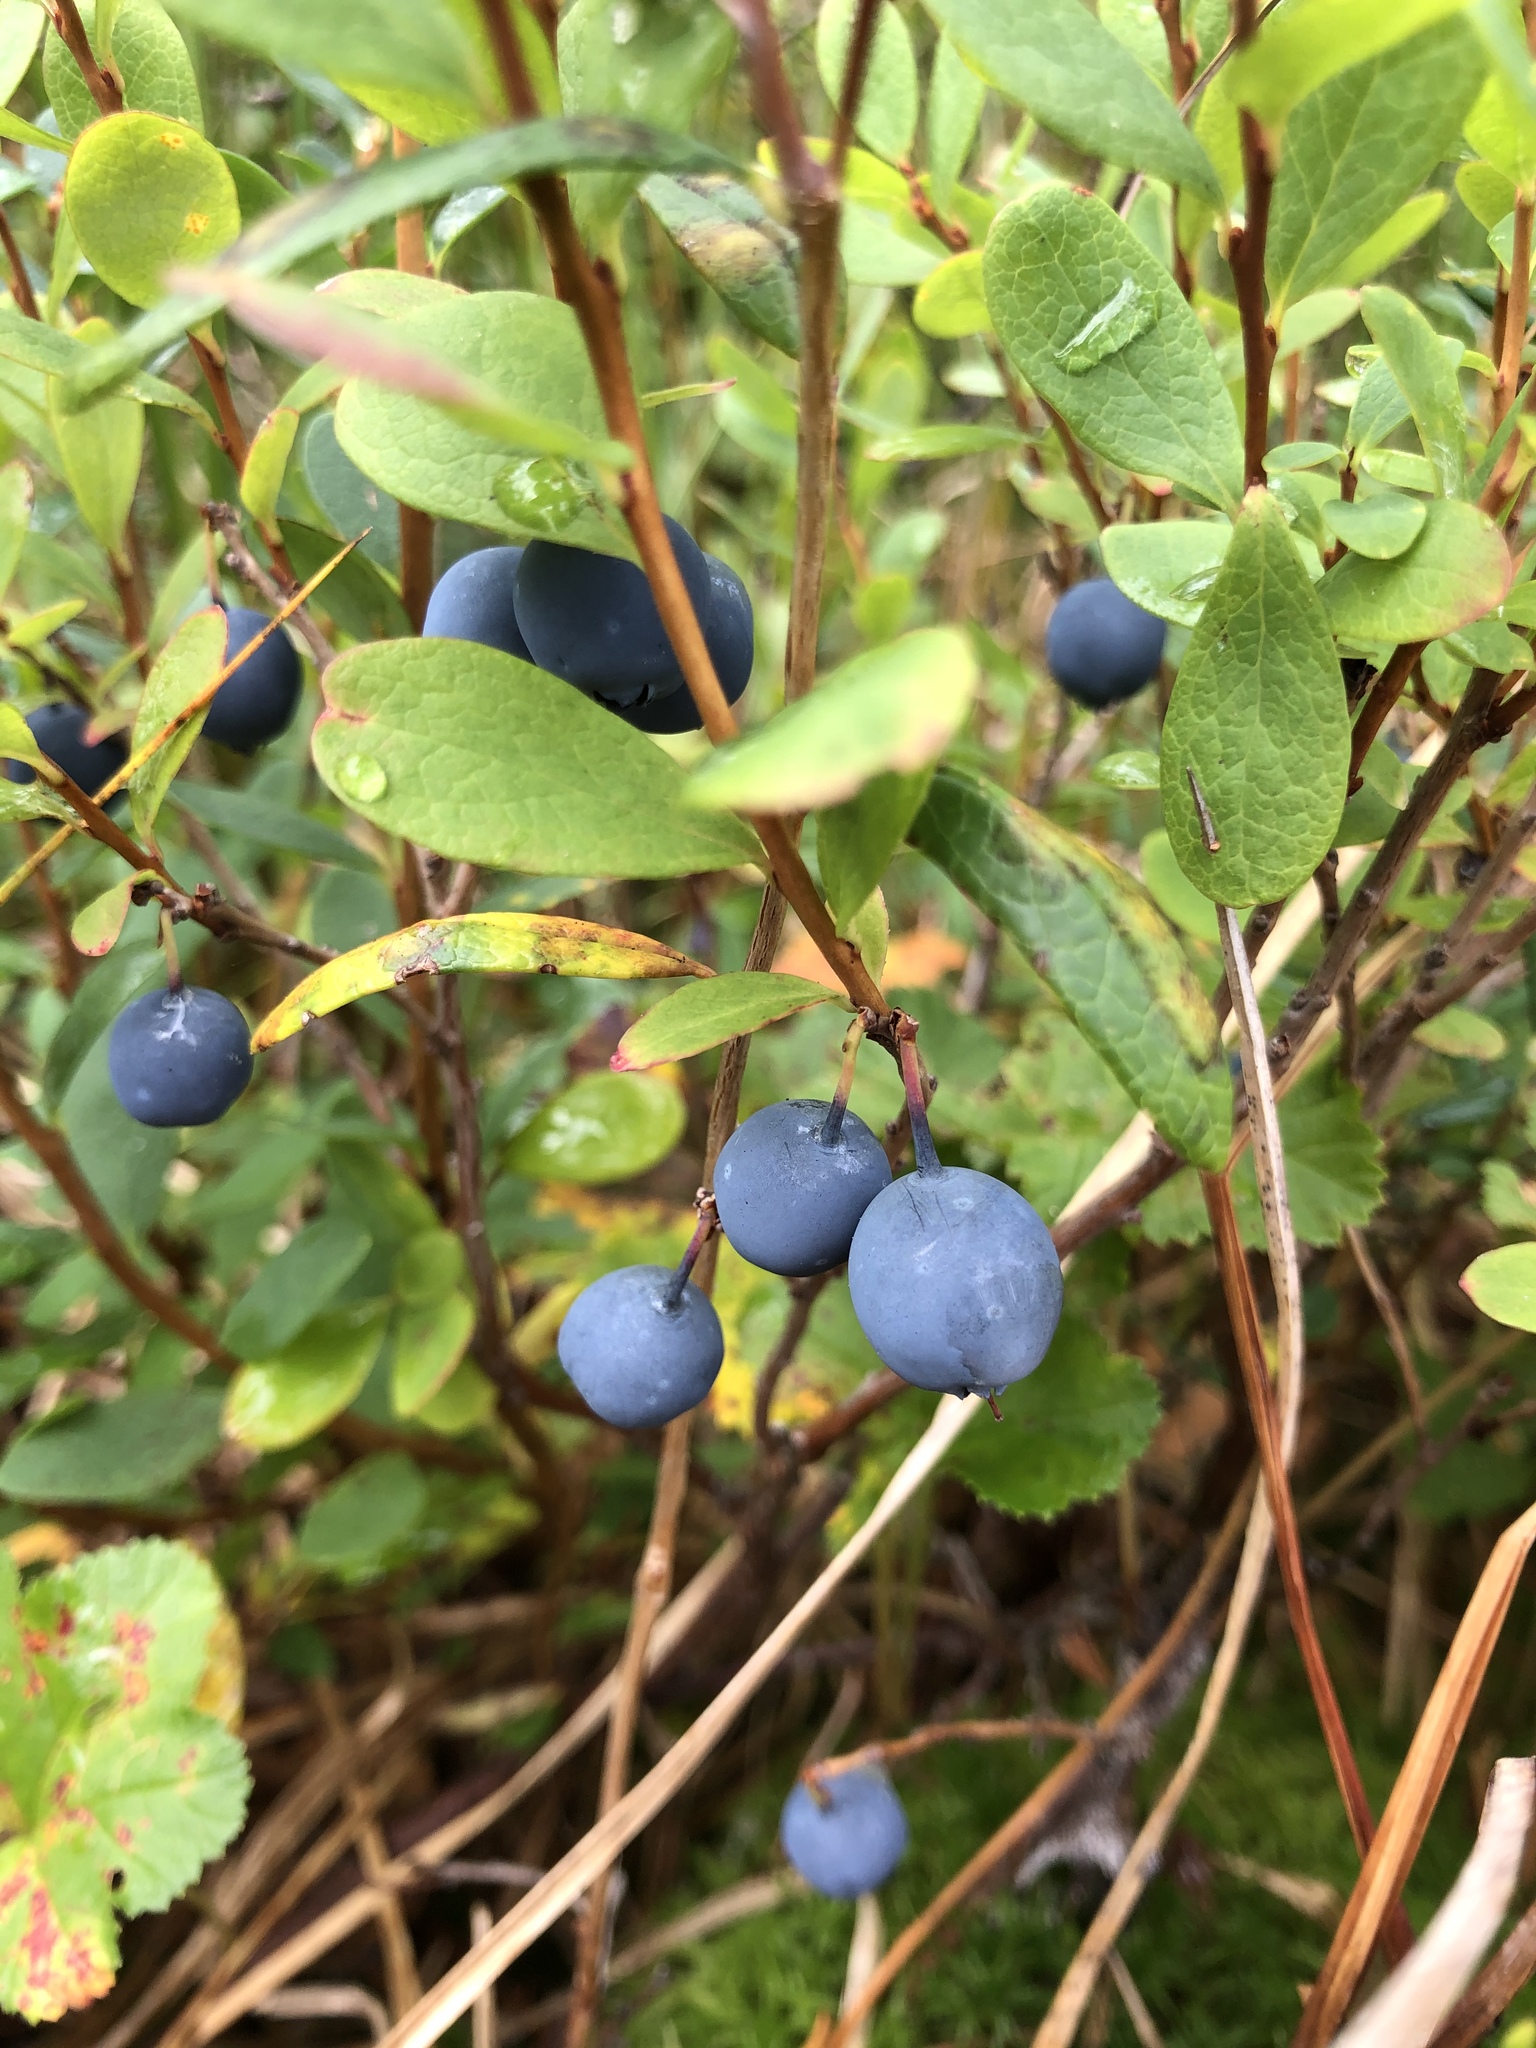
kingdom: Plantae
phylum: Tracheophyta
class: Magnoliopsida
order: Ericales
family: Ericaceae
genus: Vaccinium
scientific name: Vaccinium uliginosum
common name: Bog bilberry
